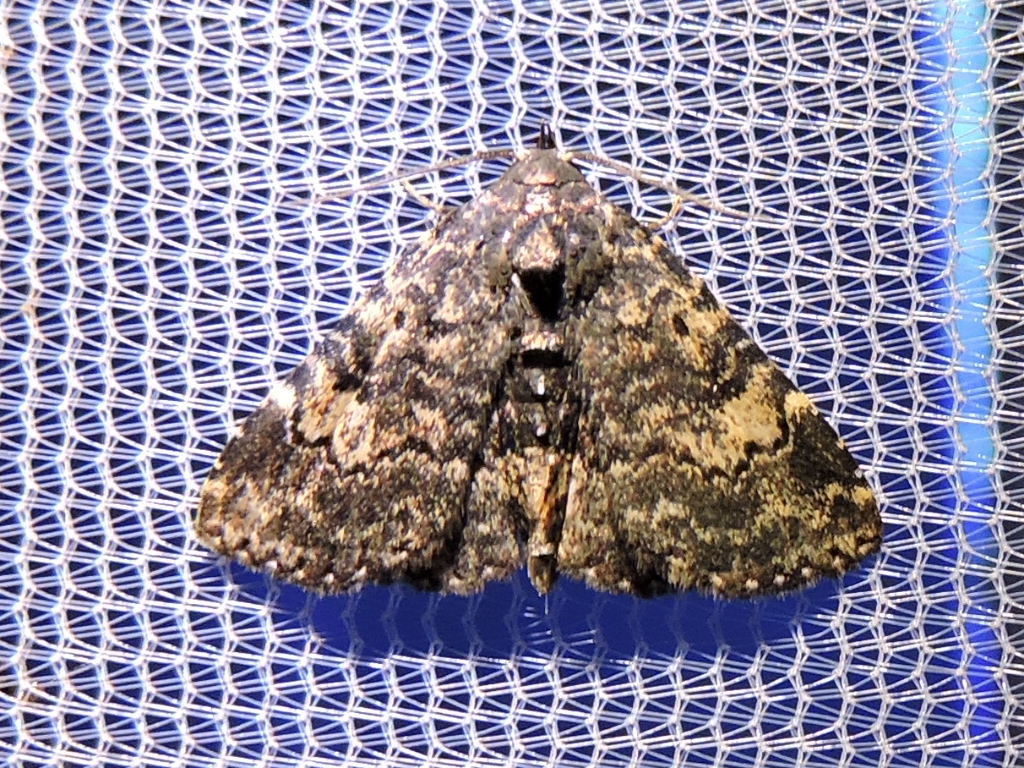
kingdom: Animalia
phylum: Arthropoda
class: Insecta
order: Lepidoptera
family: Erebidae
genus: Metalectra
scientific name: Metalectra diabolica
